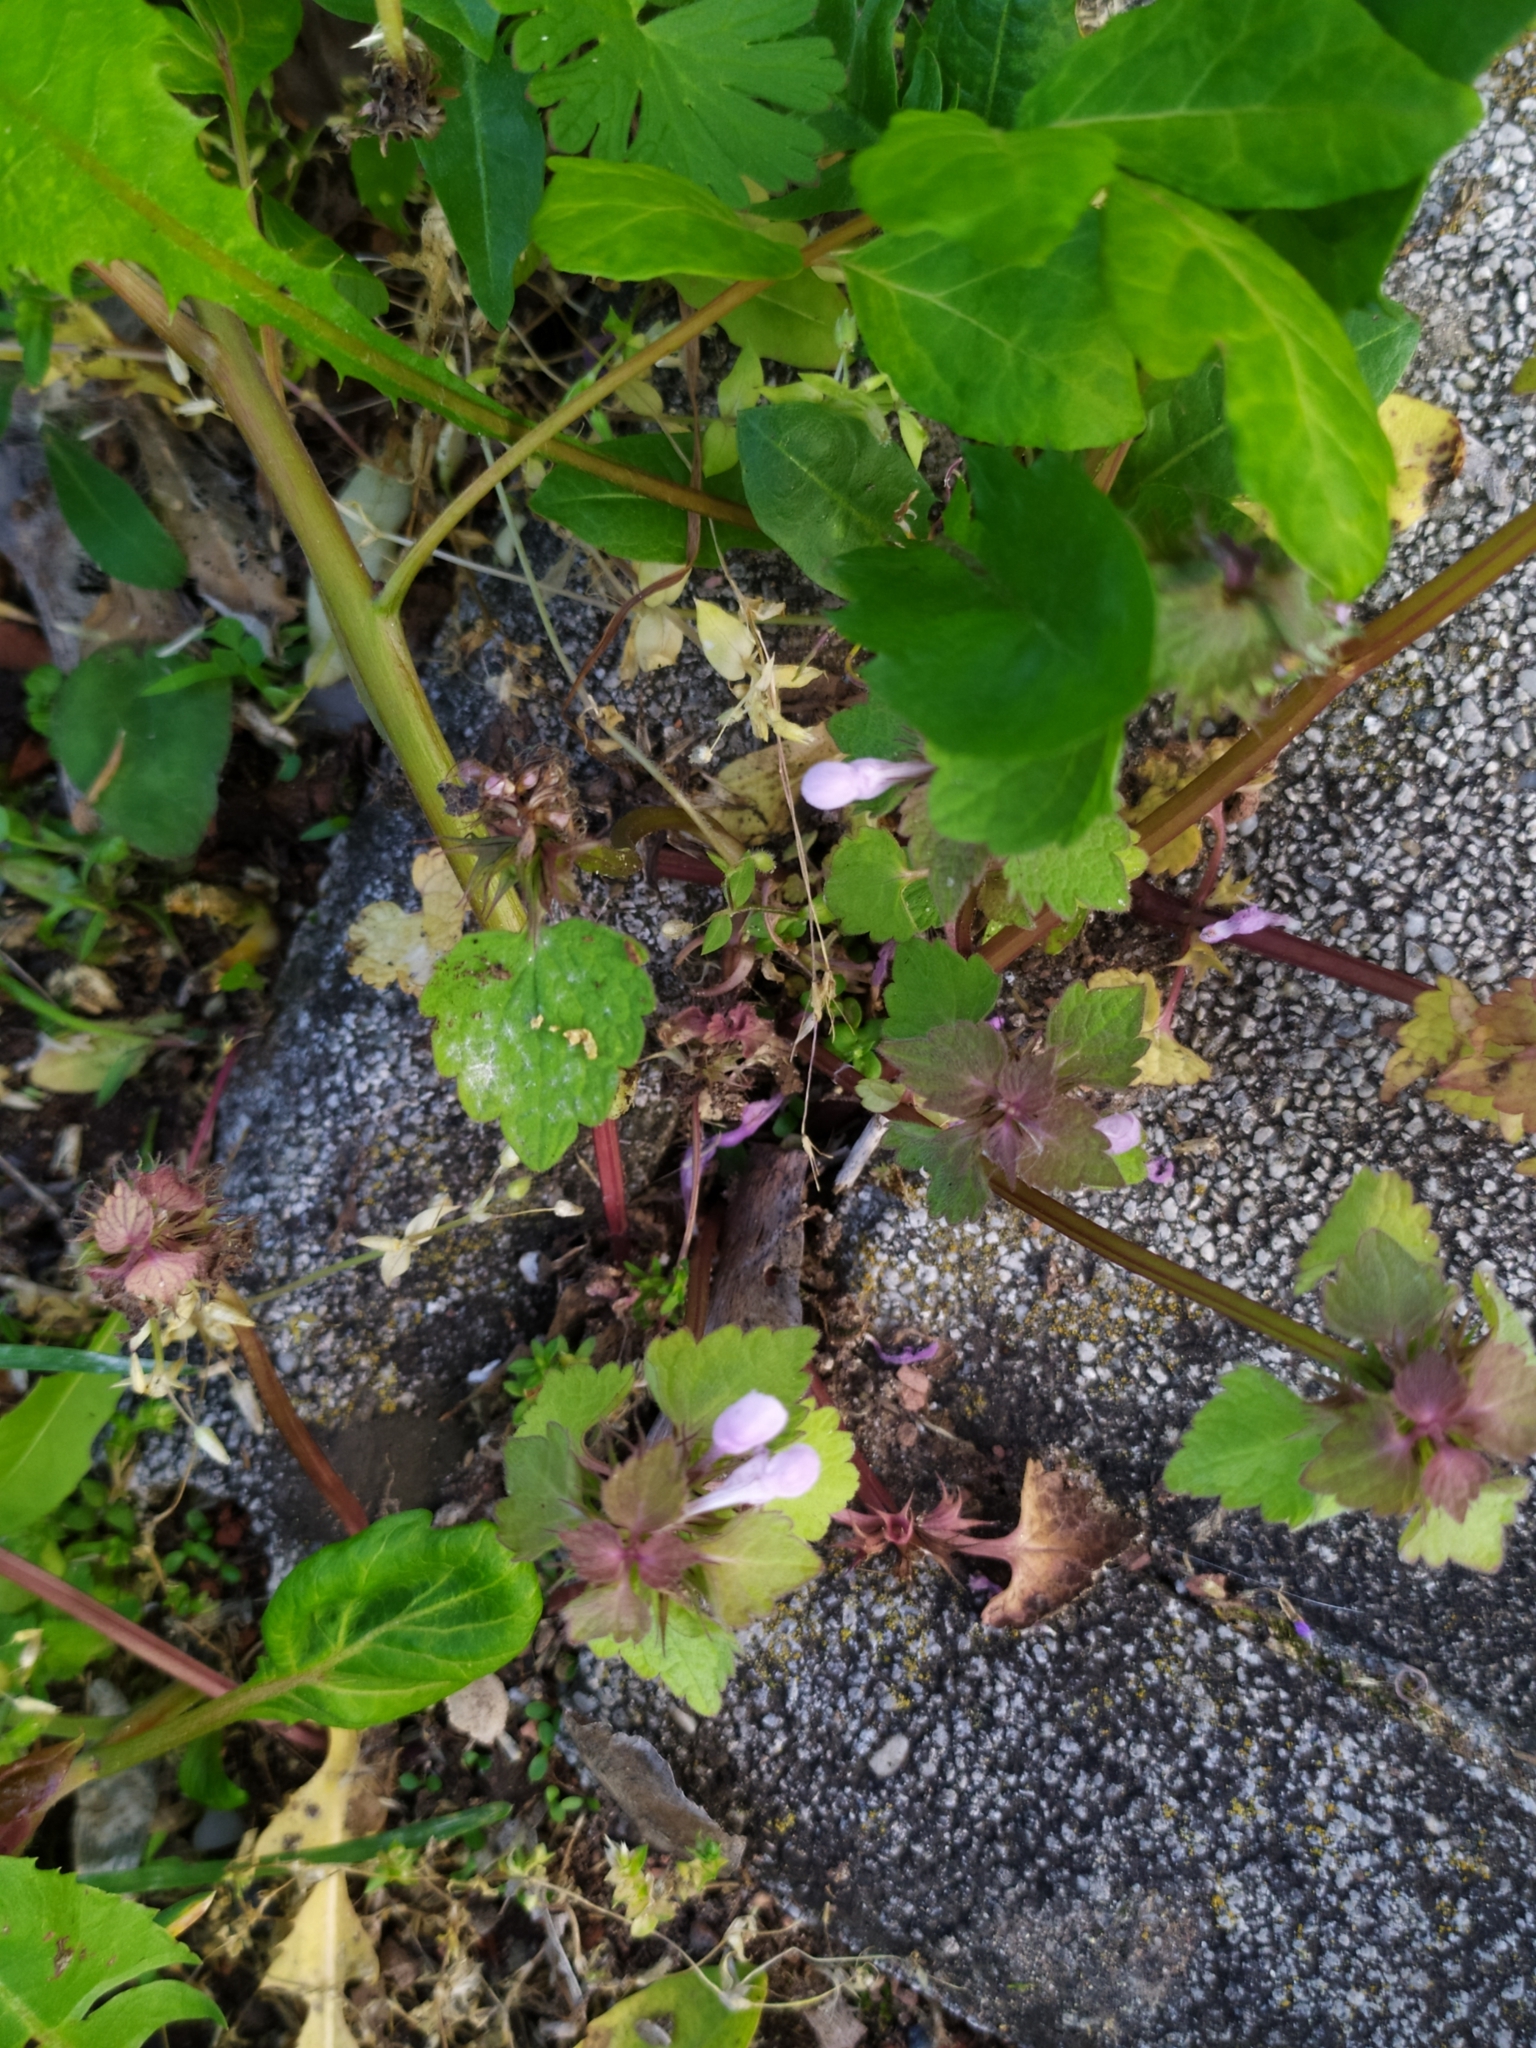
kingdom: Fungi
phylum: Ascomycota
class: Leotiomycetes
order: Helotiales
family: Erysiphaceae
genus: Neoerysiphe
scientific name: Neoerysiphe galeopsidis
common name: Mint mildew
